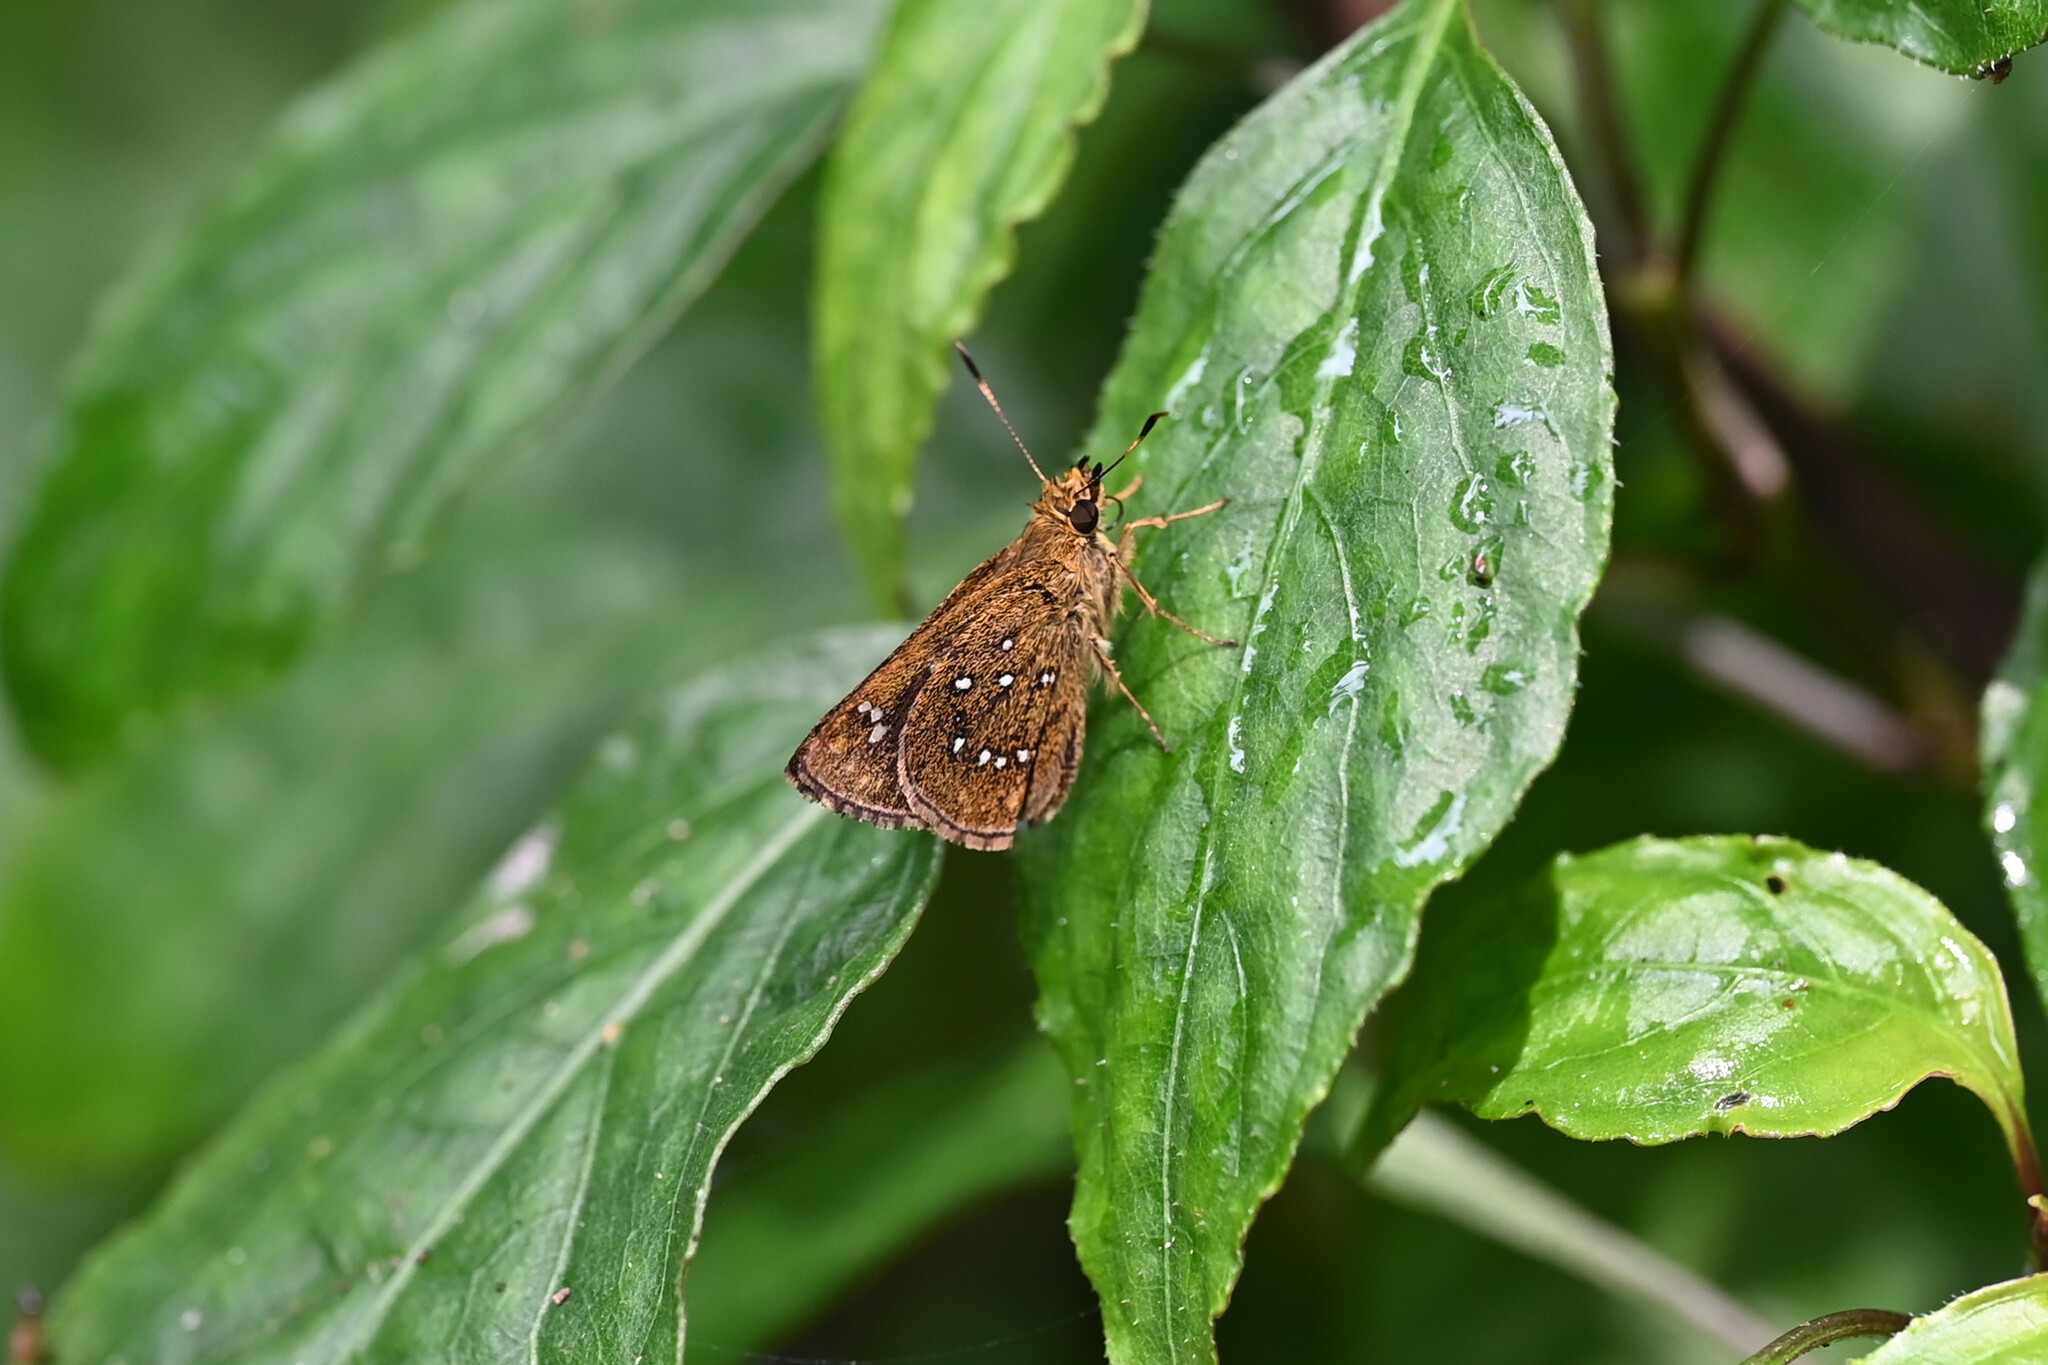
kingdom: Animalia
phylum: Arthropoda
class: Insecta
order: Lepidoptera
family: Hesperiidae
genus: Arnetta
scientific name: Arnetta atkinsoni
